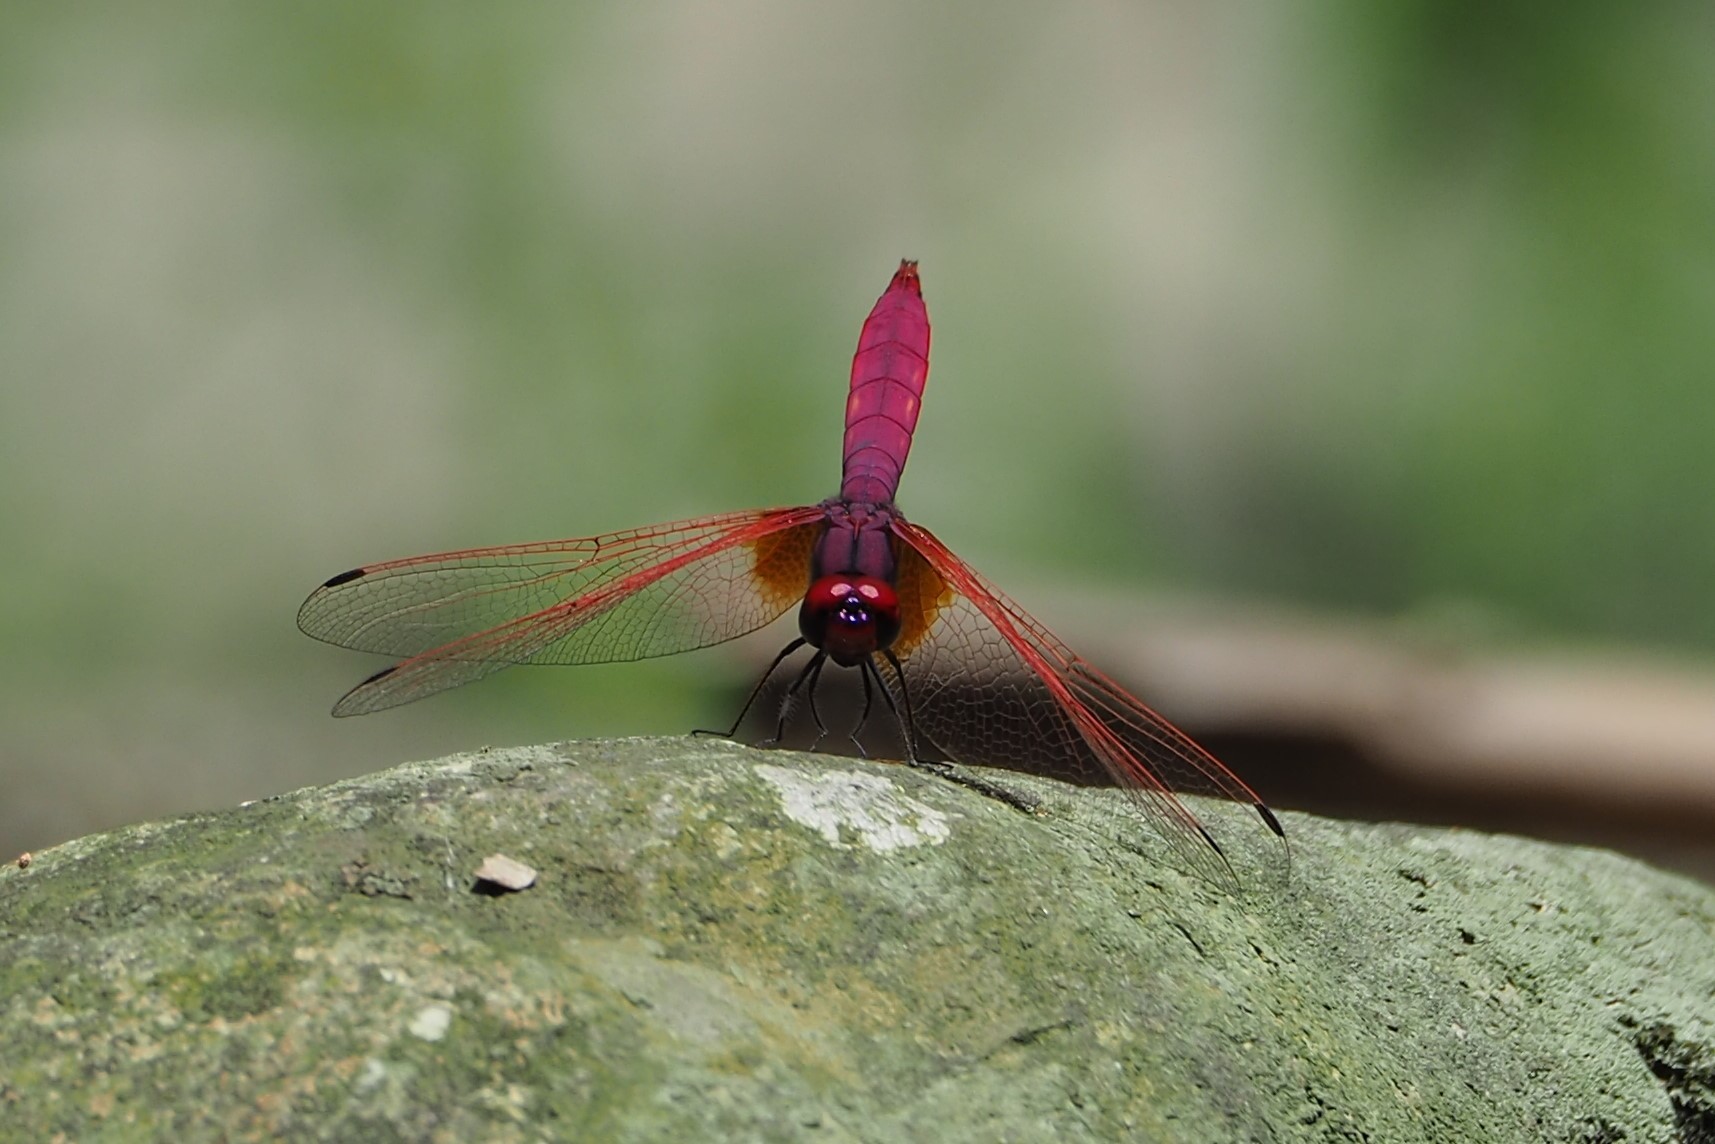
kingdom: Animalia
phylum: Arthropoda
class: Insecta
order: Odonata
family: Libellulidae
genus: Trithemis
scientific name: Trithemis aurora
